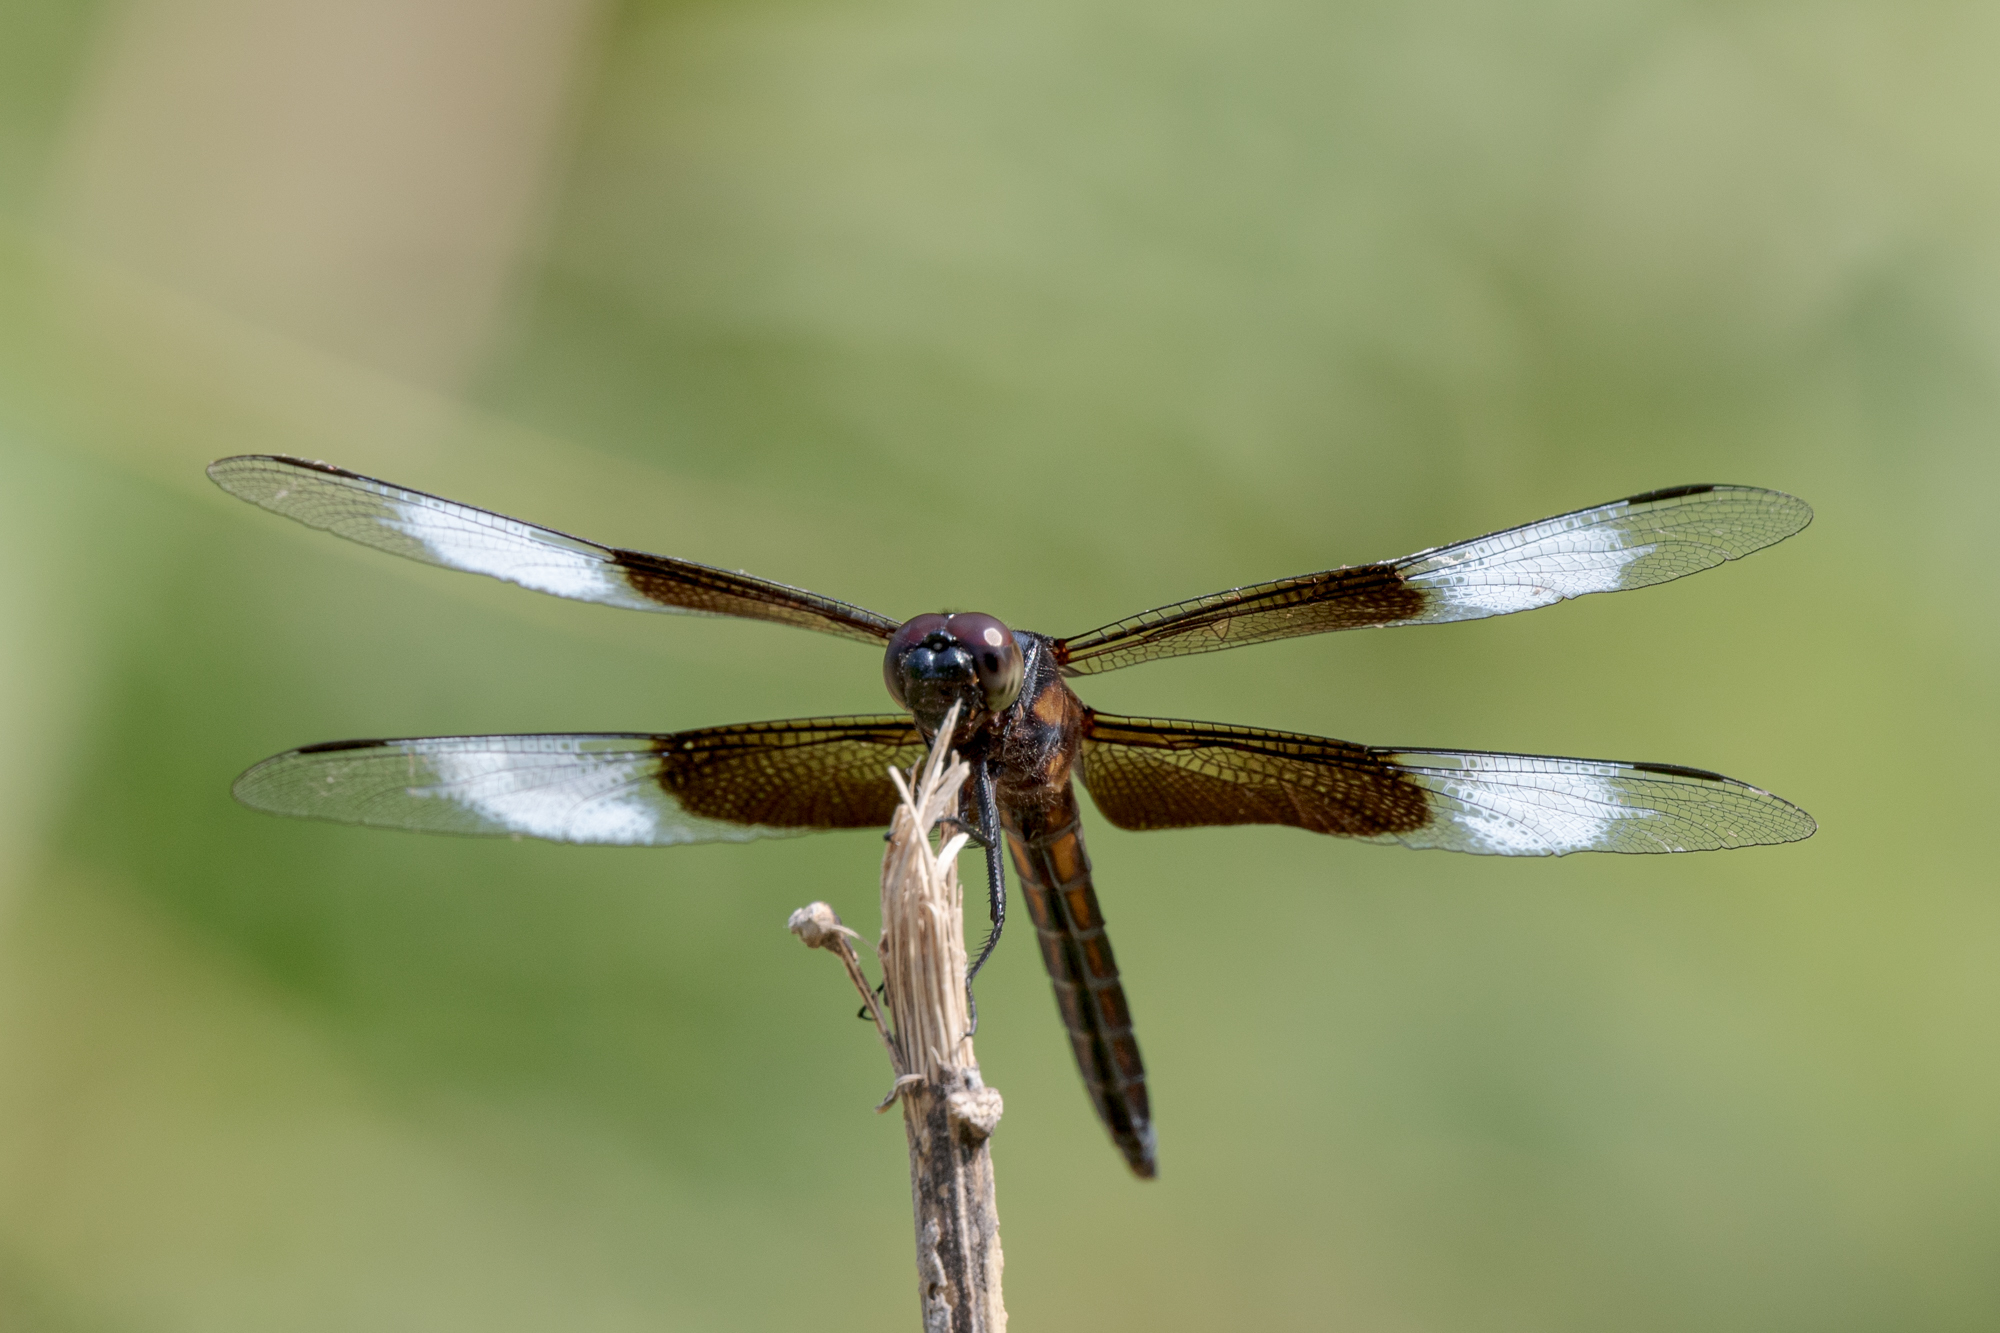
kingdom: Animalia
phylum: Arthropoda
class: Insecta
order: Odonata
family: Libellulidae
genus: Libellula
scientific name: Libellula luctuosa
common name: Widow skimmer
